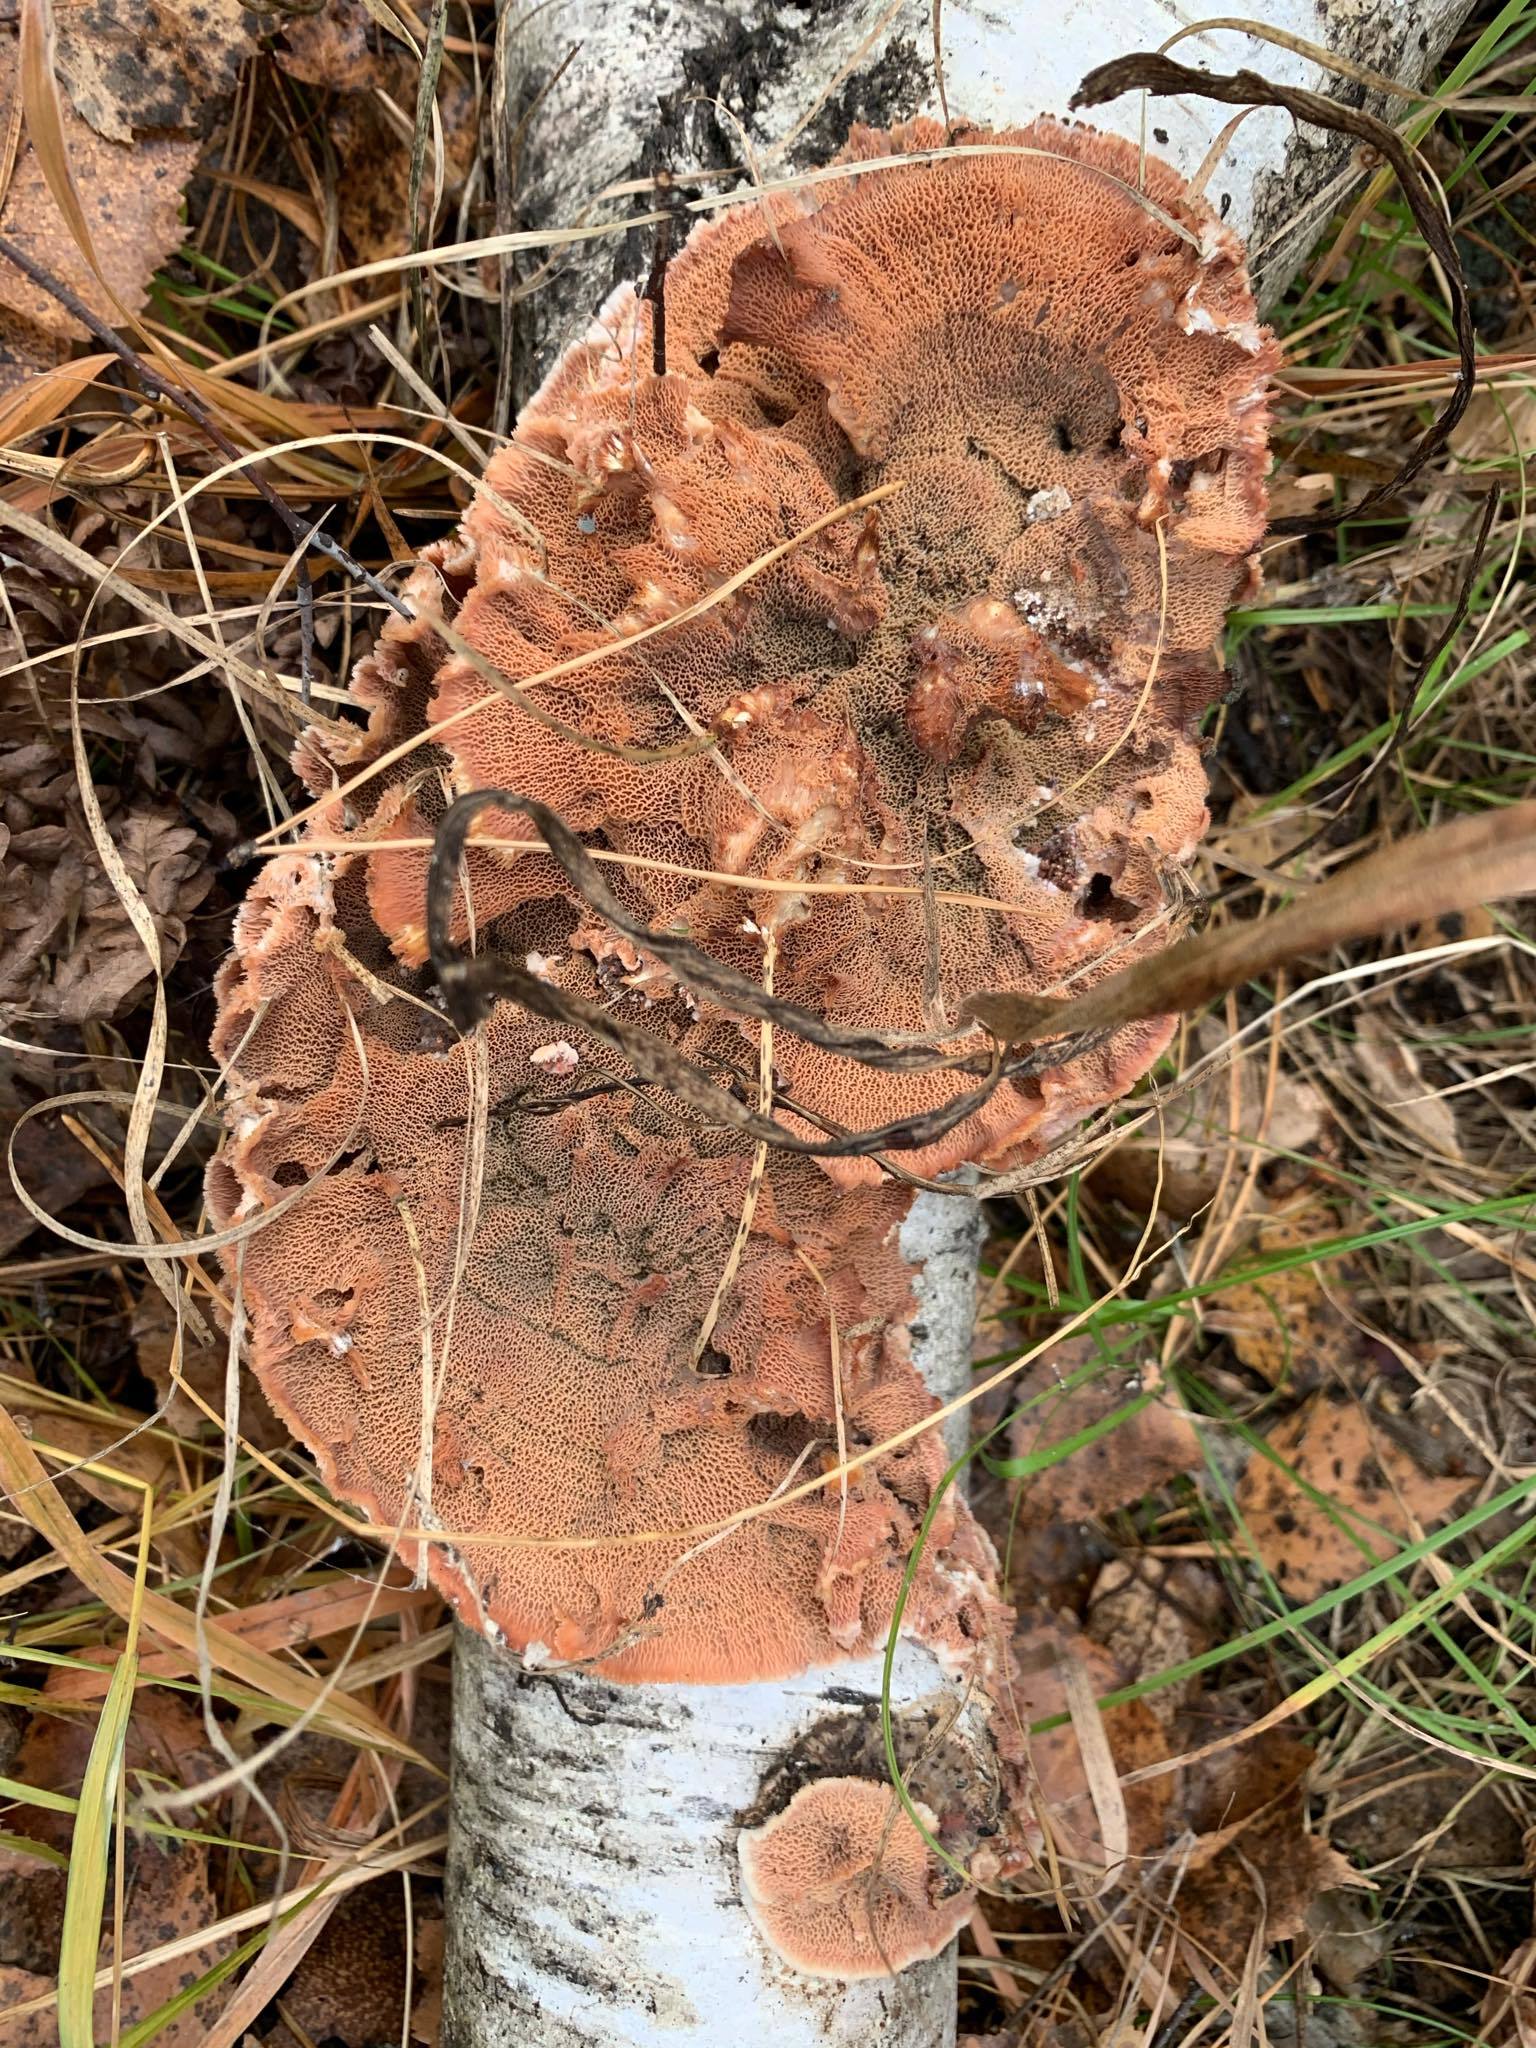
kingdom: Fungi
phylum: Basidiomycota
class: Agaricomycetes
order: Polyporales
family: Meruliaceae
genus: Phlebia
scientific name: Phlebia tremellosa
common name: Jelly rot
